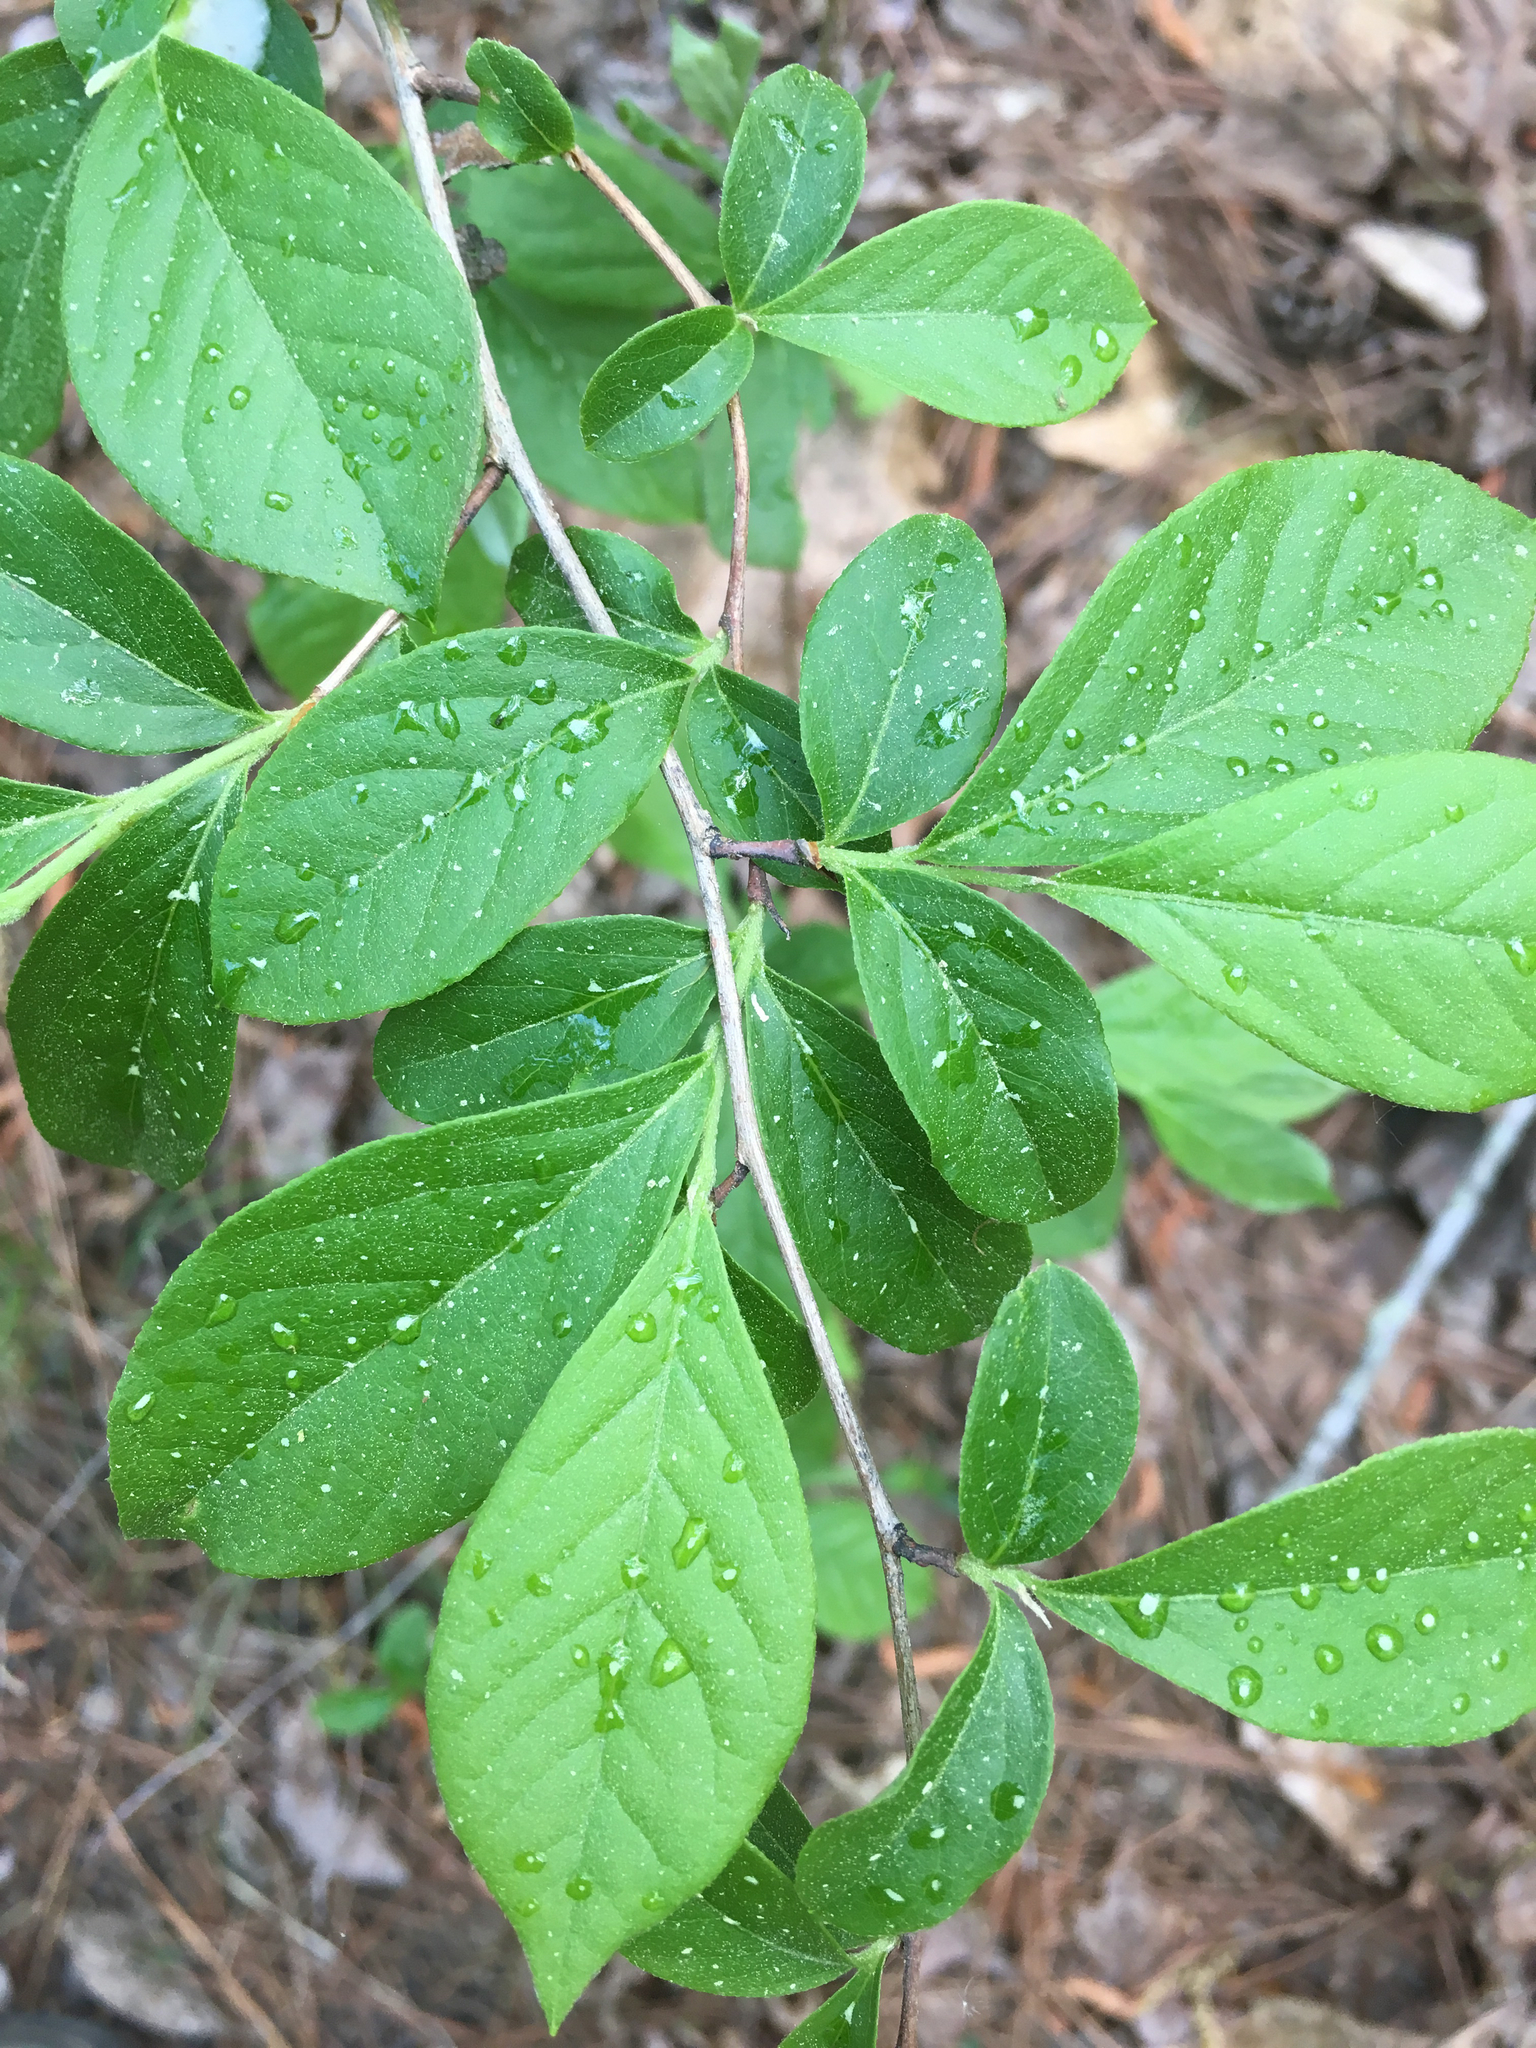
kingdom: Plantae
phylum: Tracheophyta
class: Magnoliopsida
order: Ericales
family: Ericaceae
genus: Lyonia
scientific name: Lyonia ligustrina
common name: Maleberry
